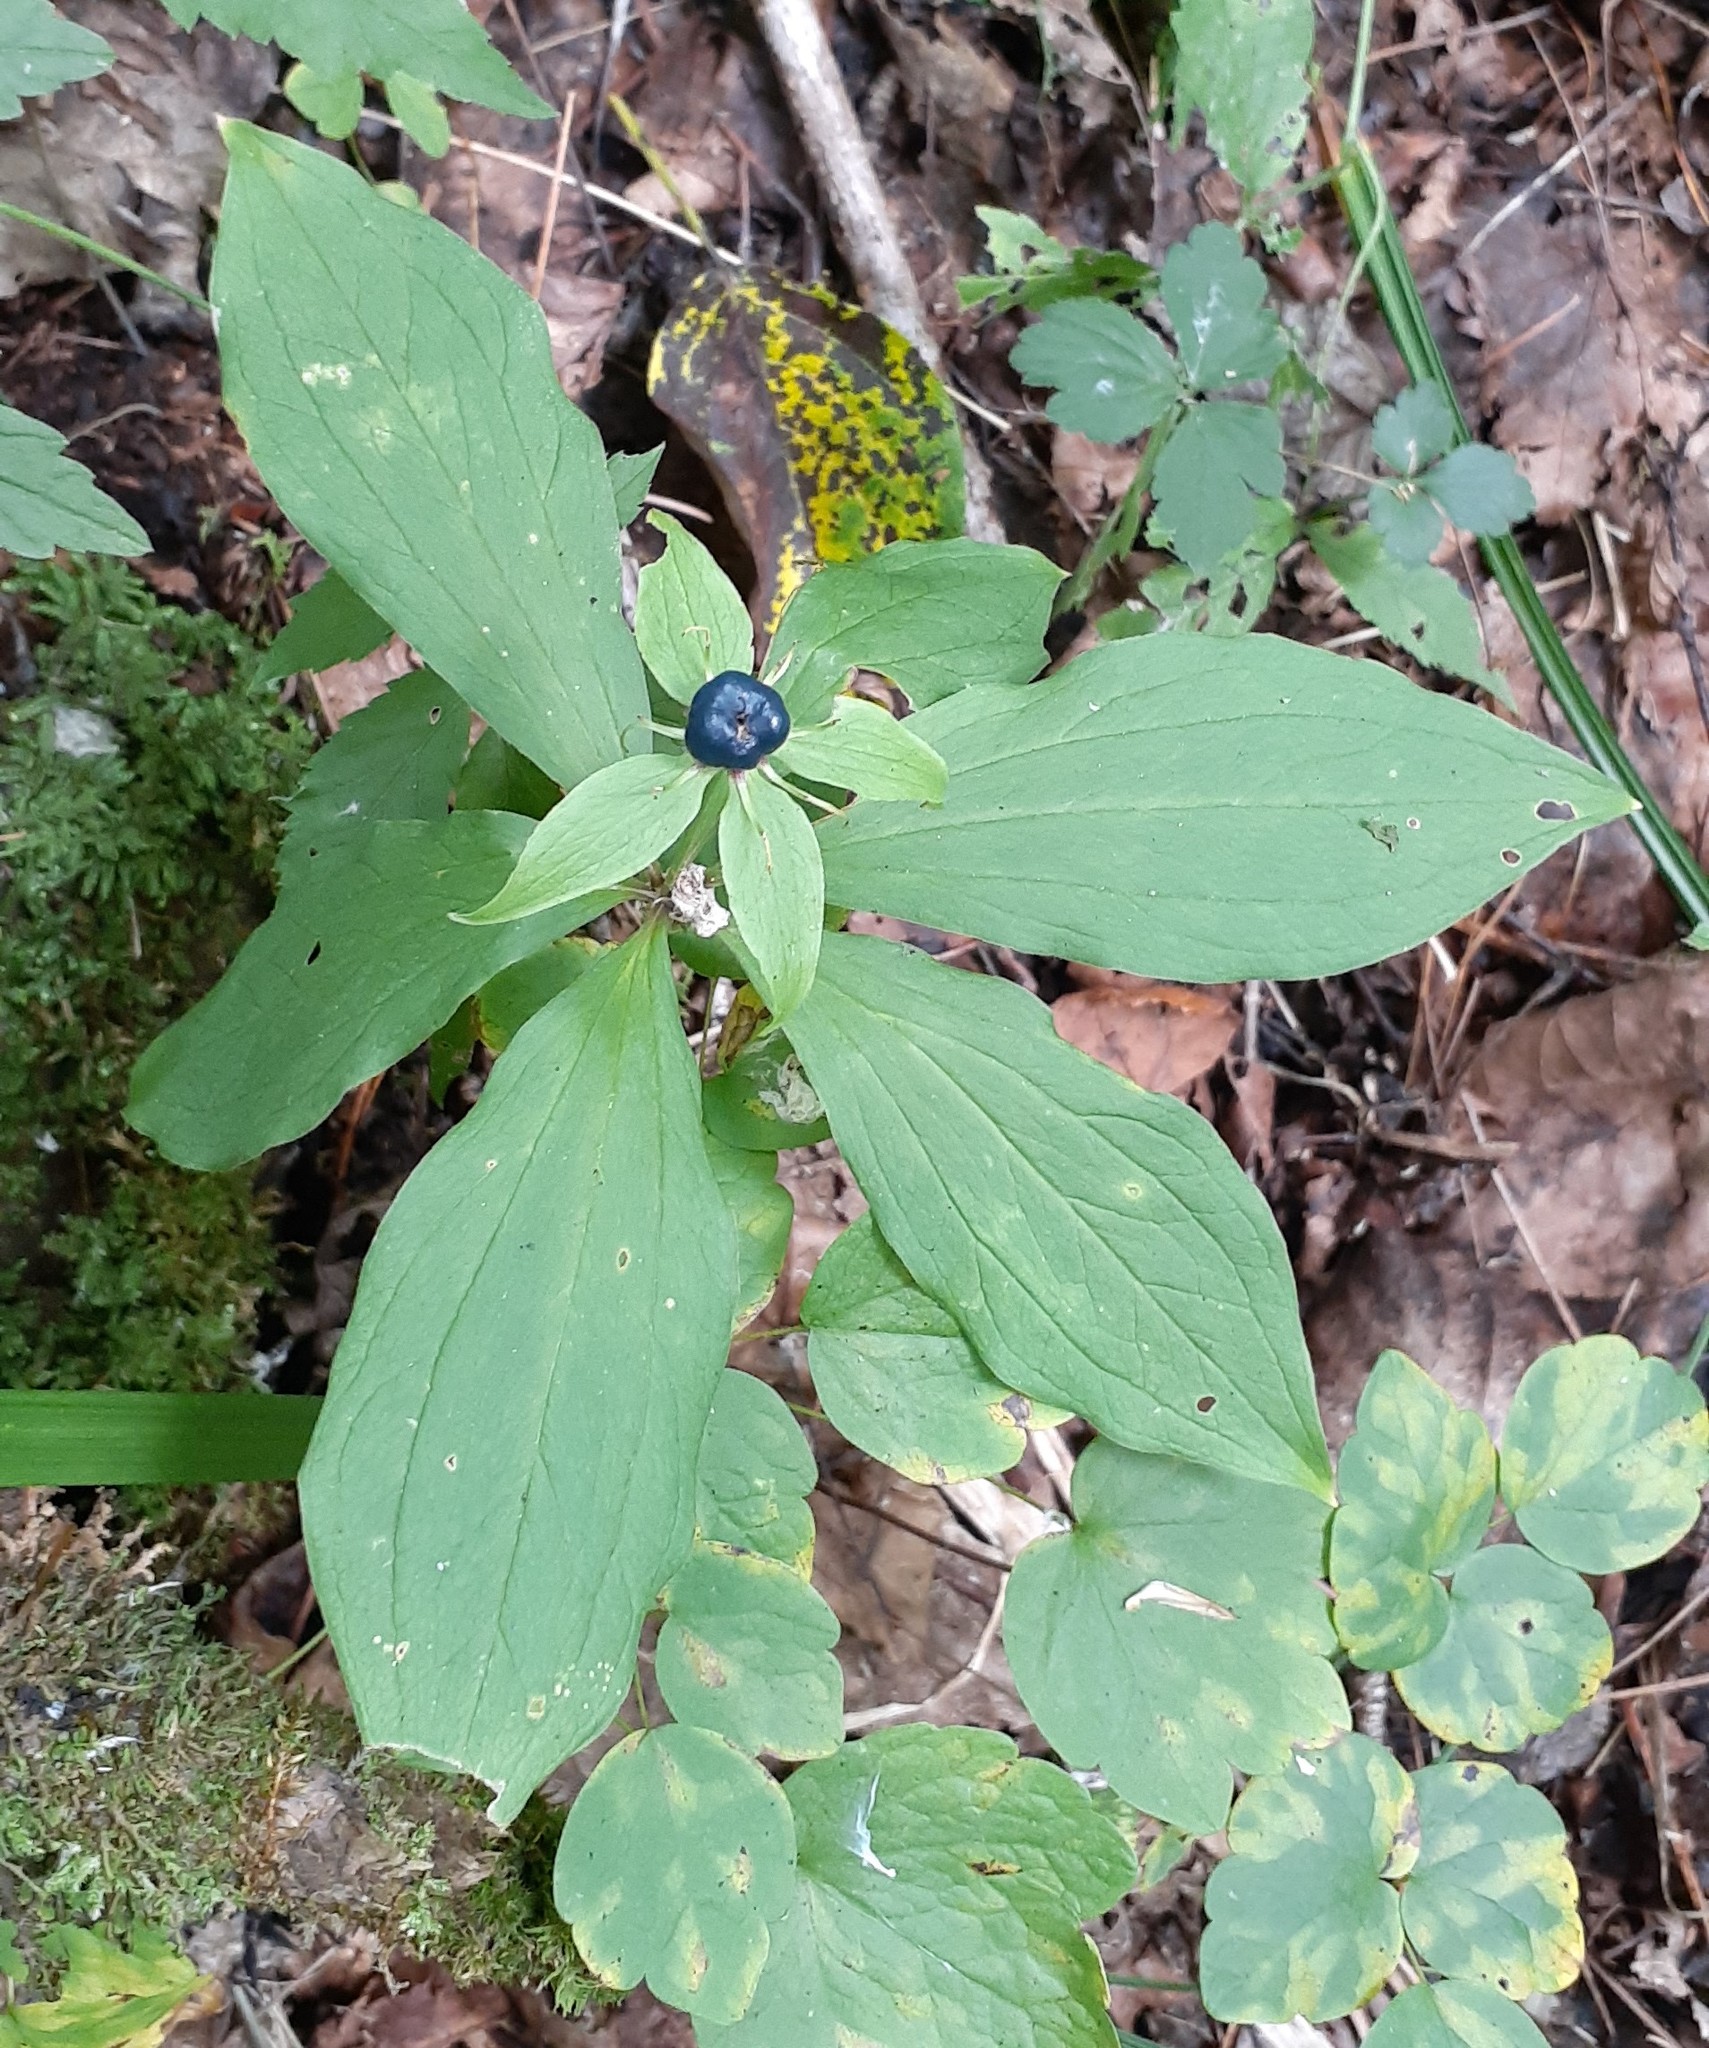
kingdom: Plantae
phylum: Tracheophyta
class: Liliopsida
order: Liliales
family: Melanthiaceae
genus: Paris
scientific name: Paris verticillata
